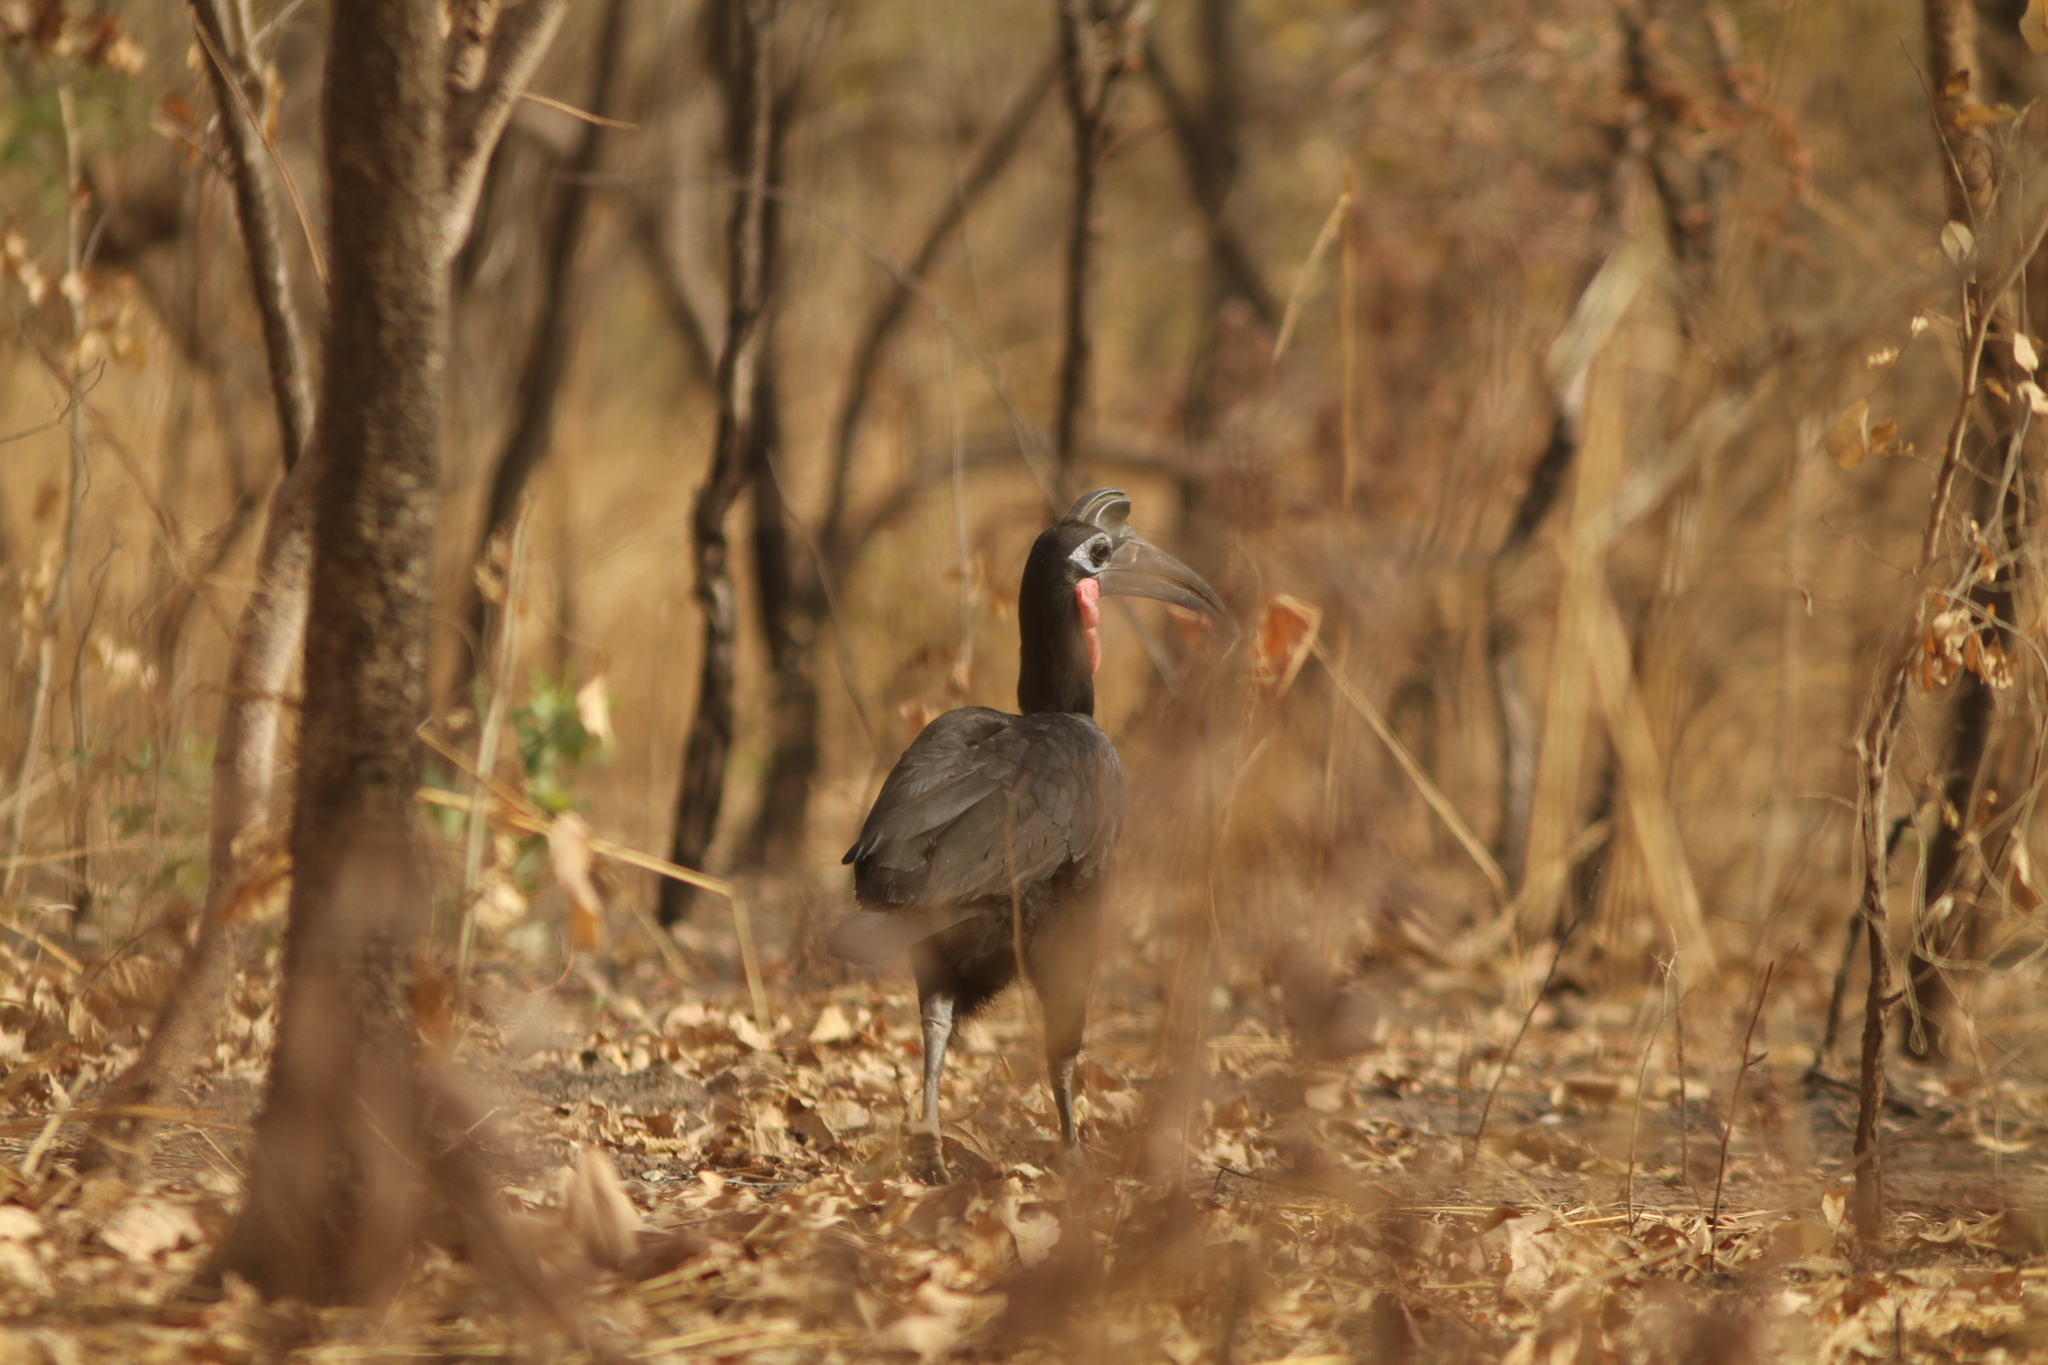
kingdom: Animalia
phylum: Chordata
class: Aves
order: Bucerotiformes
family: Bucorvidae
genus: Bucorvus
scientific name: Bucorvus abyssinicus
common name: Abyssinian ground hornbill
